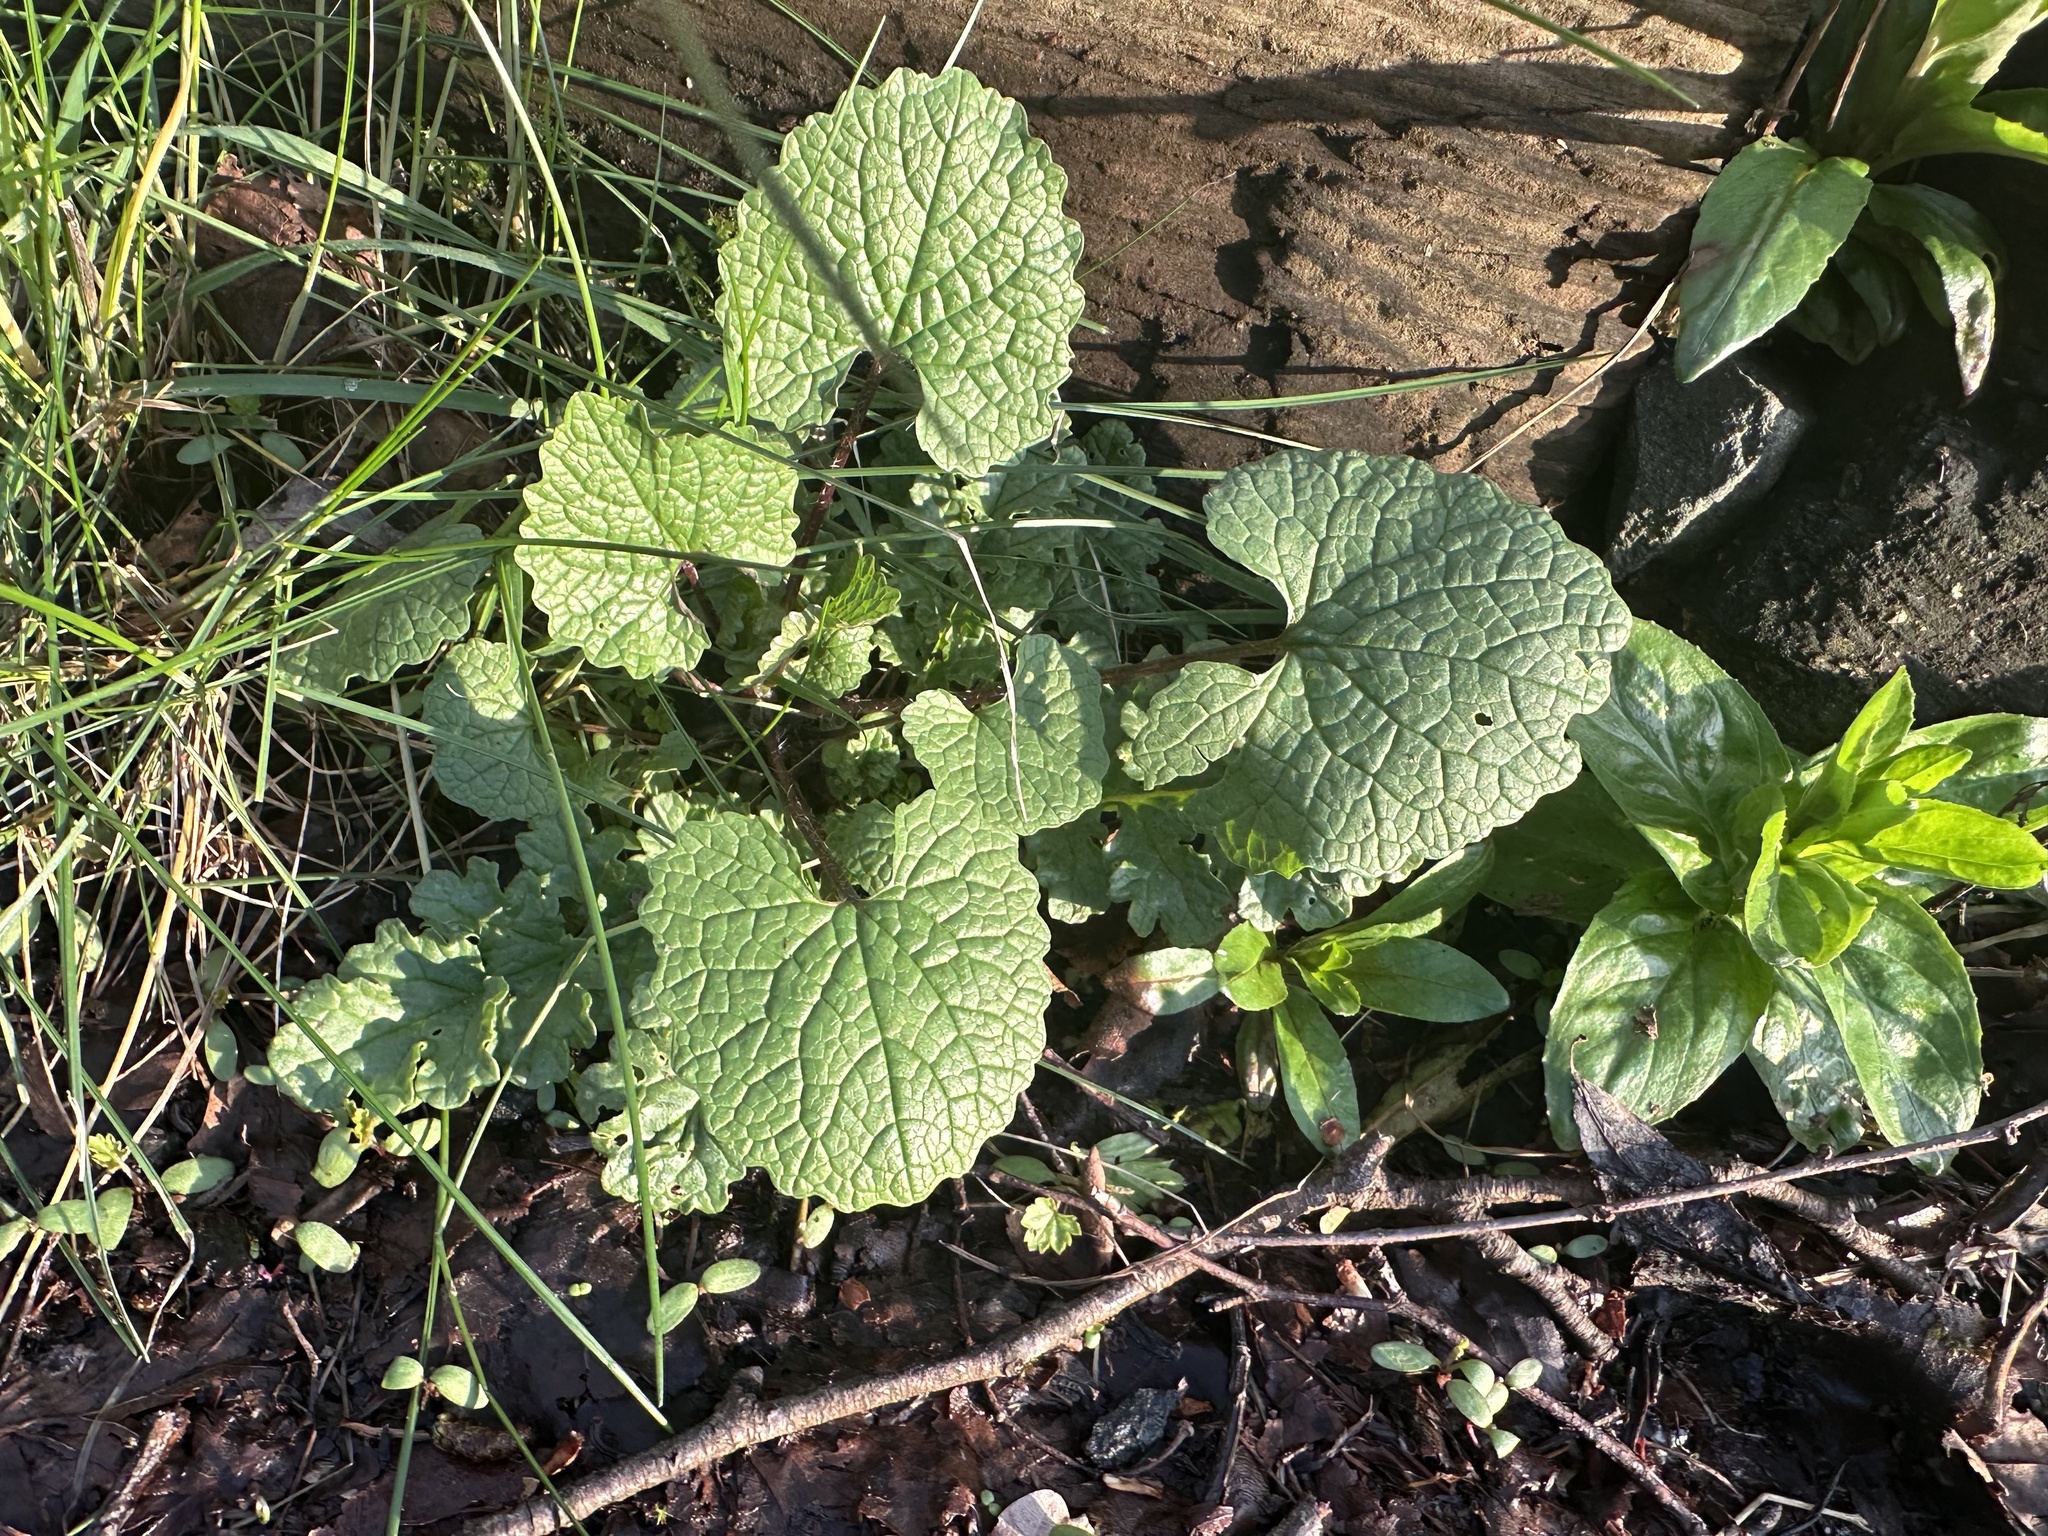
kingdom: Plantae
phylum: Tracheophyta
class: Magnoliopsida
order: Brassicales
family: Brassicaceae
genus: Alliaria
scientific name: Alliaria petiolata
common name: Garlic mustard
